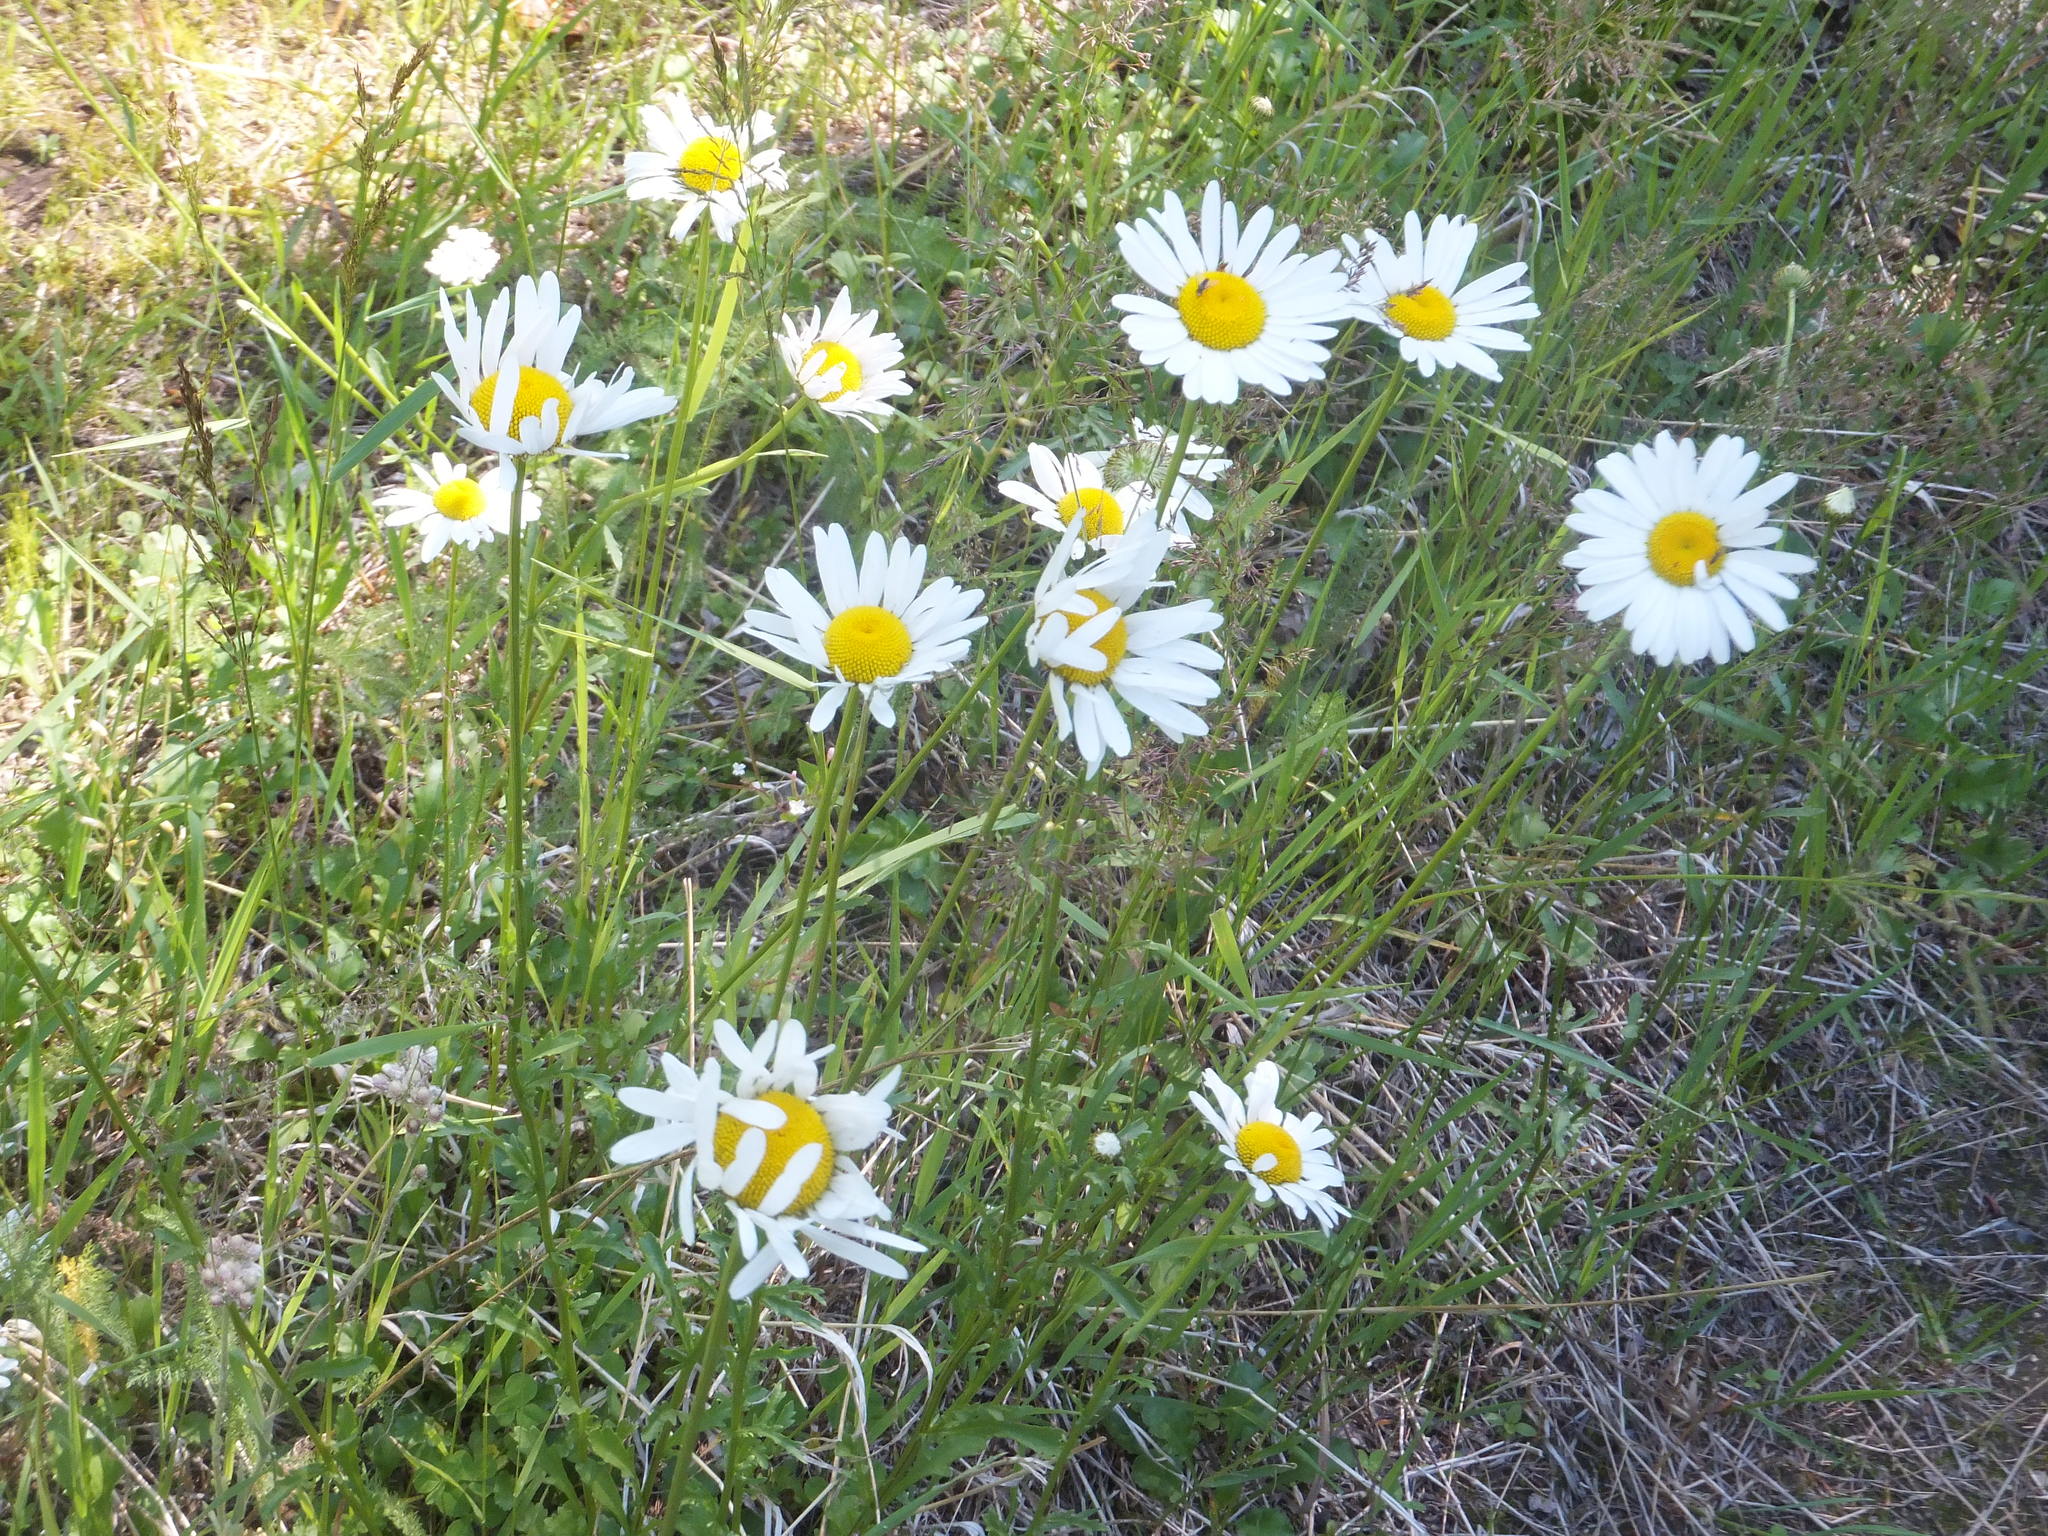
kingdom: Plantae
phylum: Tracheophyta
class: Magnoliopsida
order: Asterales
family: Asteraceae
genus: Leucanthemum
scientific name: Leucanthemum vulgare
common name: Oxeye daisy
